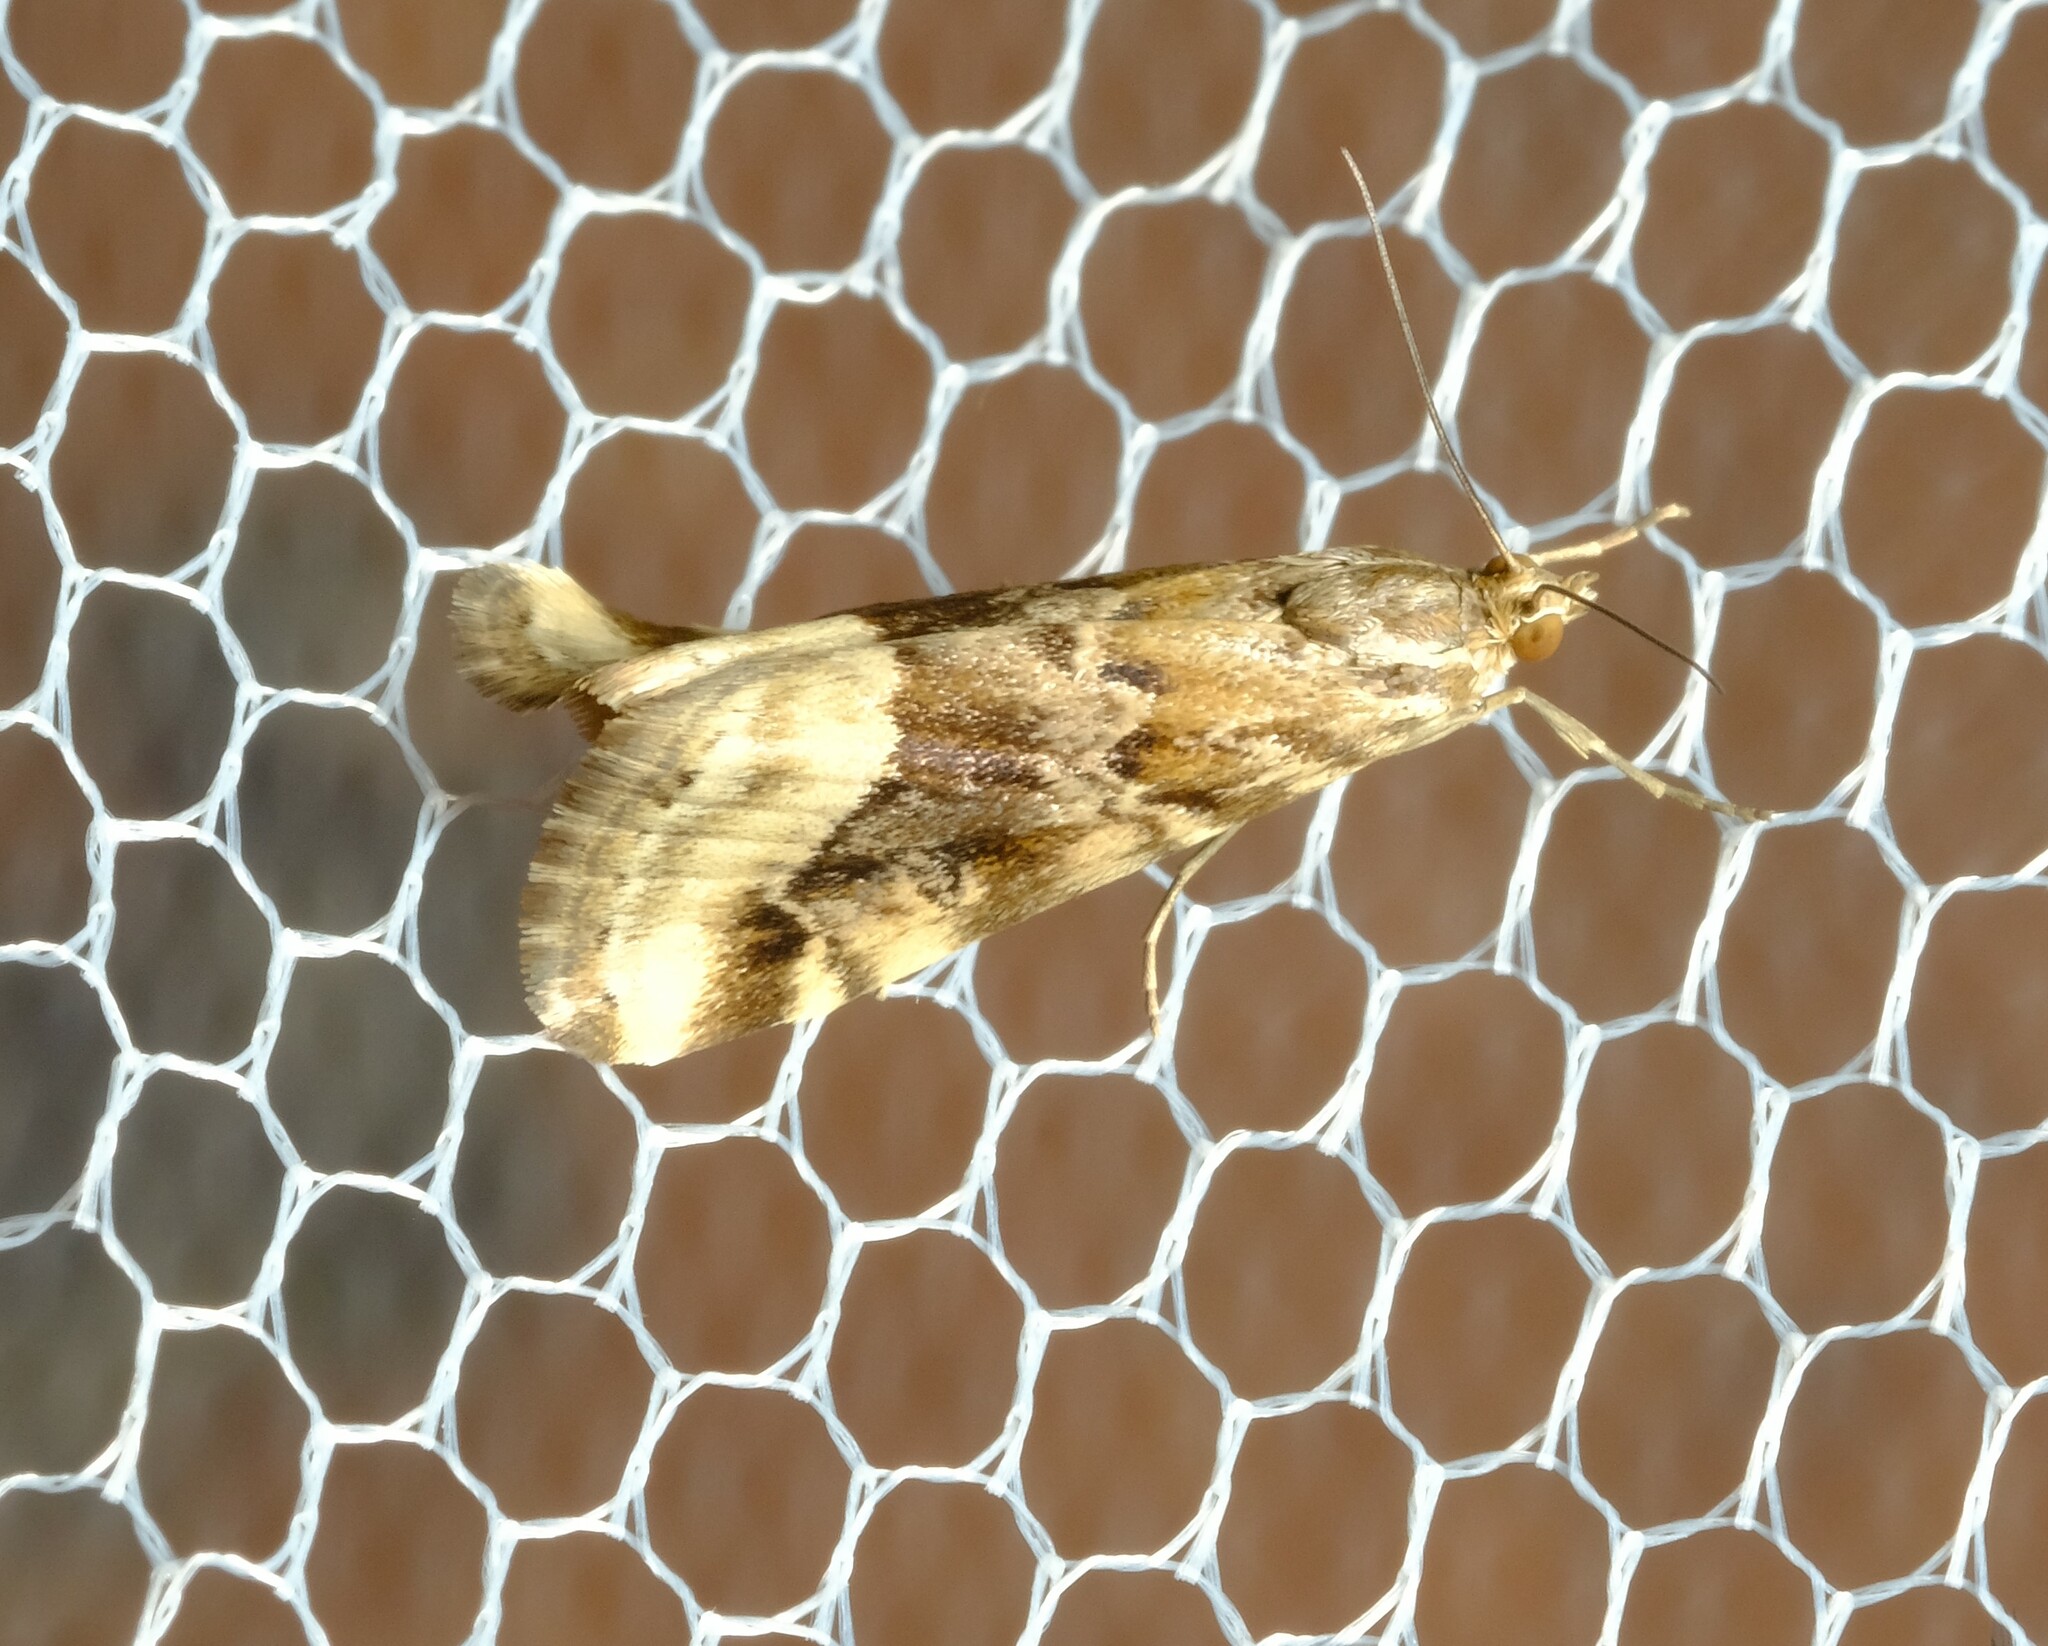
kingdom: Animalia
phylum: Arthropoda
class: Insecta
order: Lepidoptera
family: Crambidae
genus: Hellula
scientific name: Hellula hydralis
